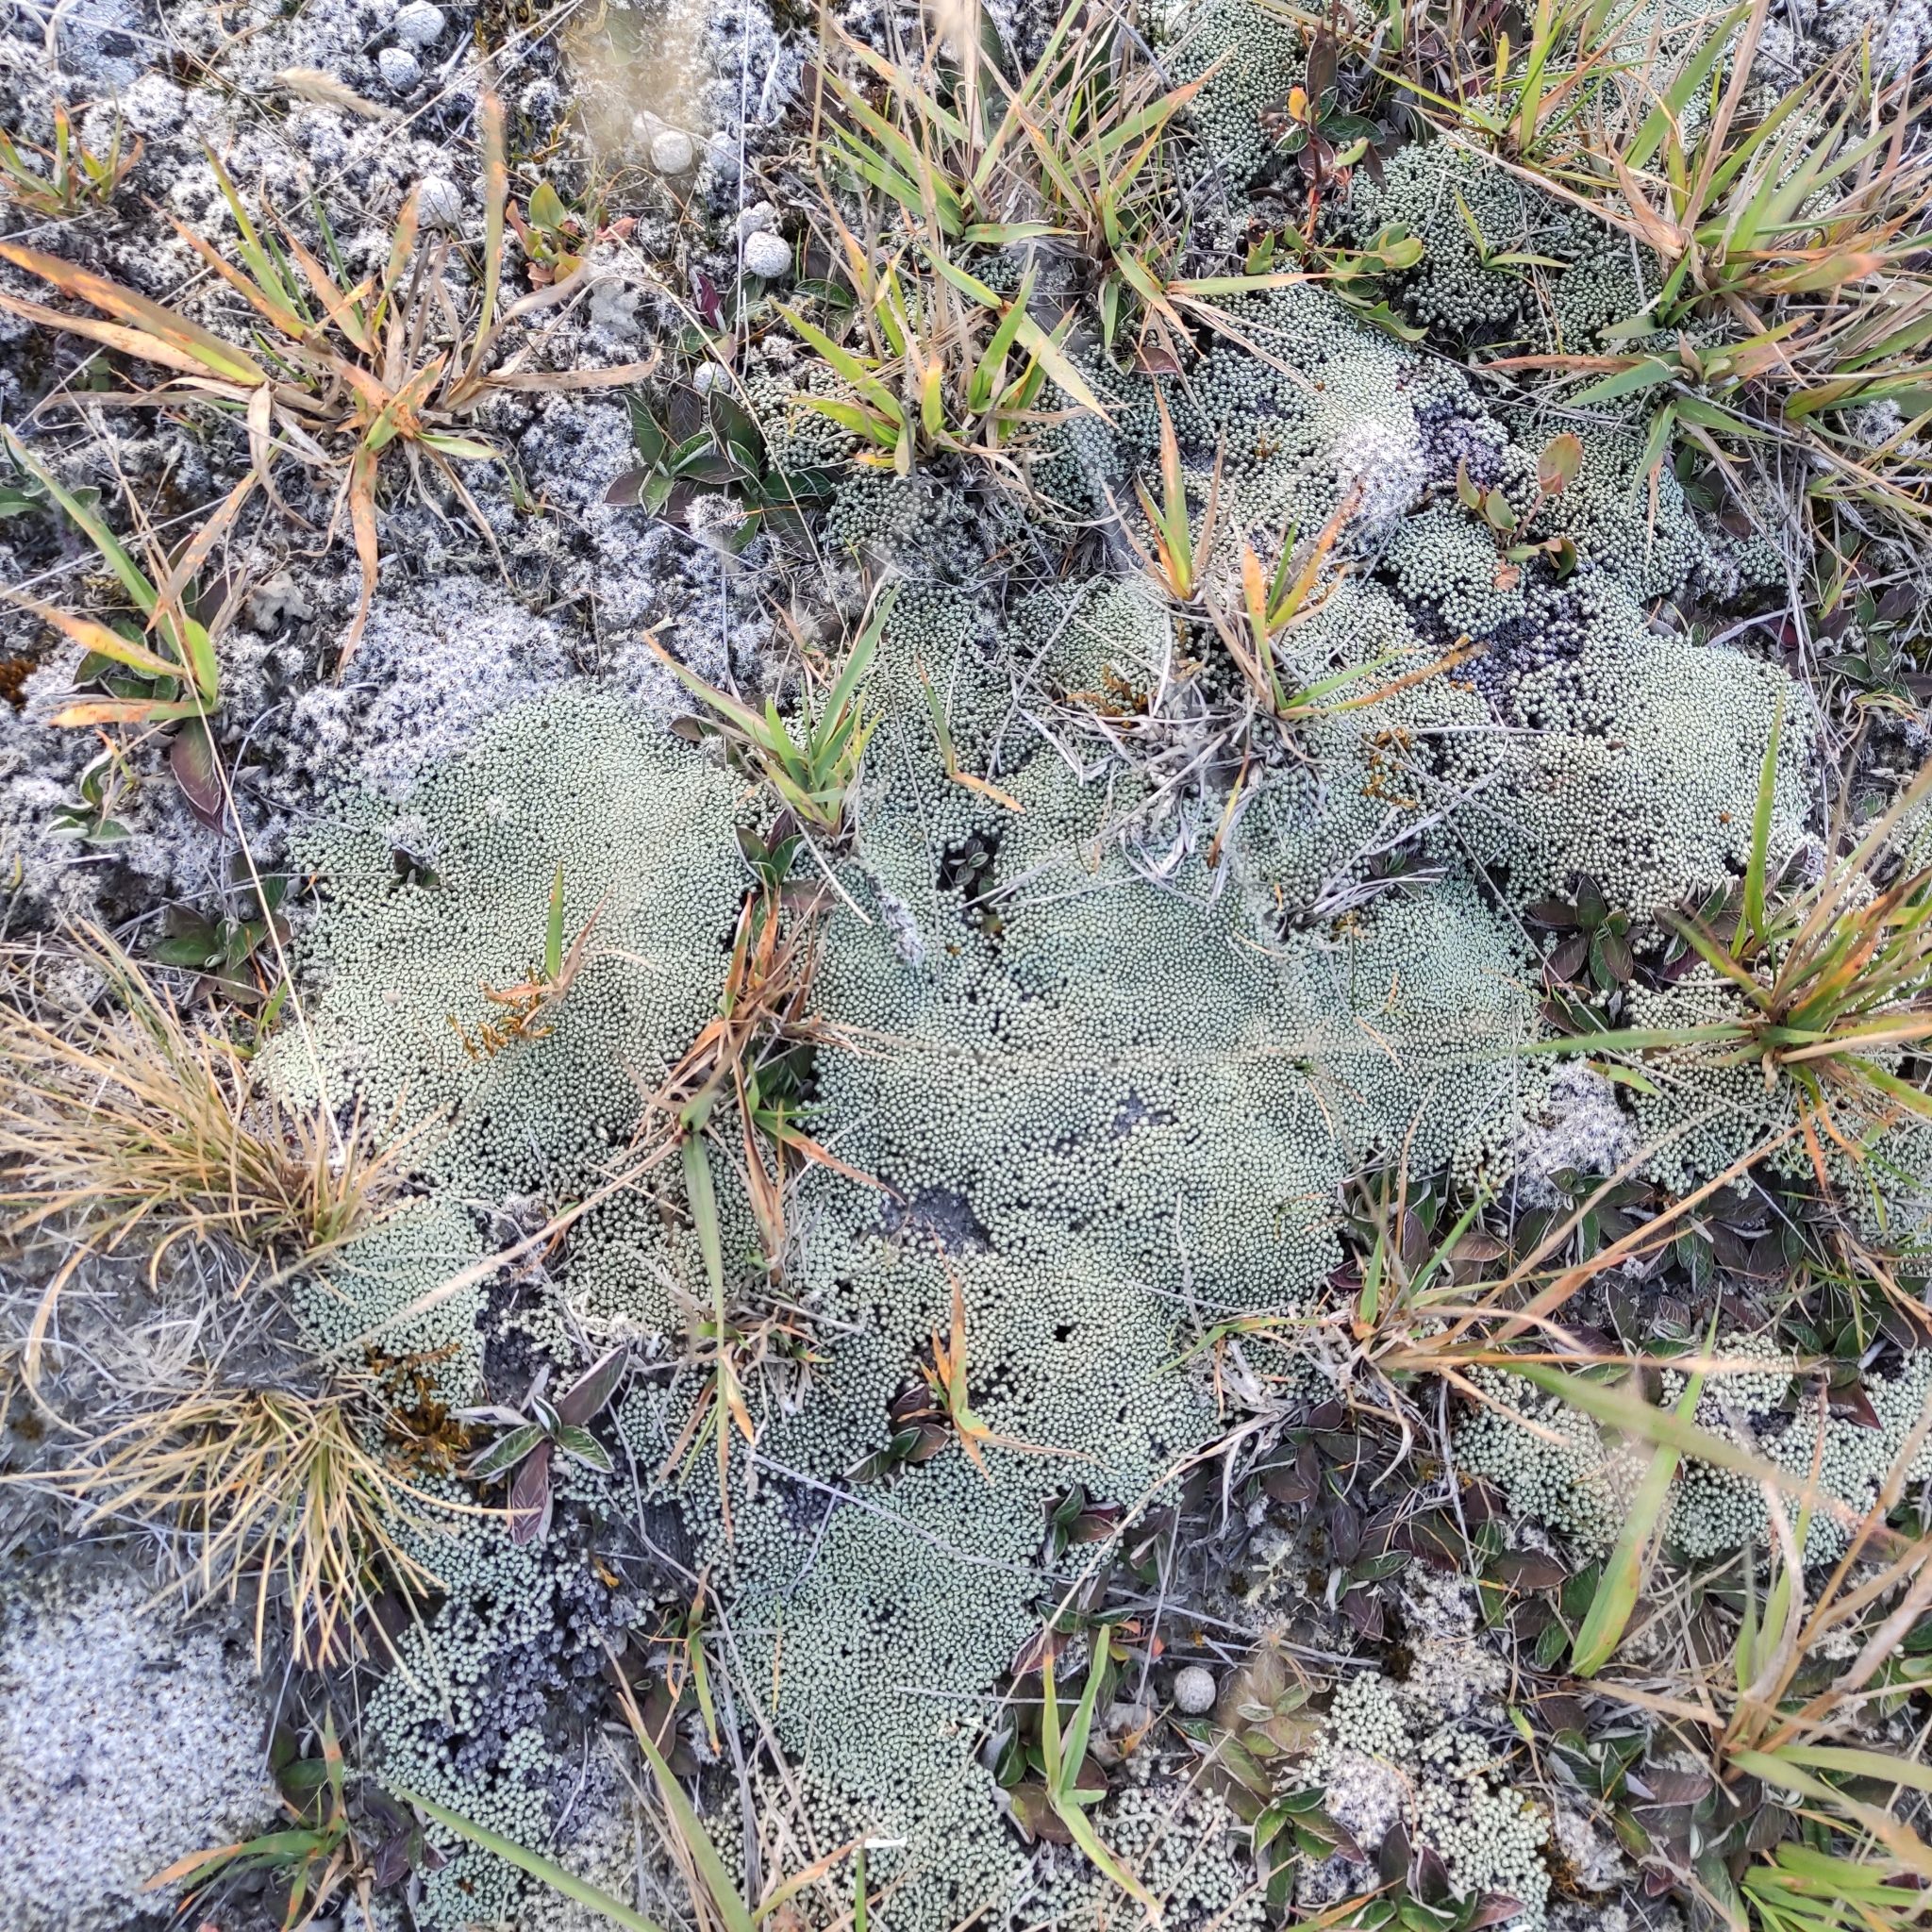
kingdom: Plantae
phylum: Tracheophyta
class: Magnoliopsida
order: Asterales
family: Asteraceae
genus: Raoulia
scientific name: Raoulia australis
